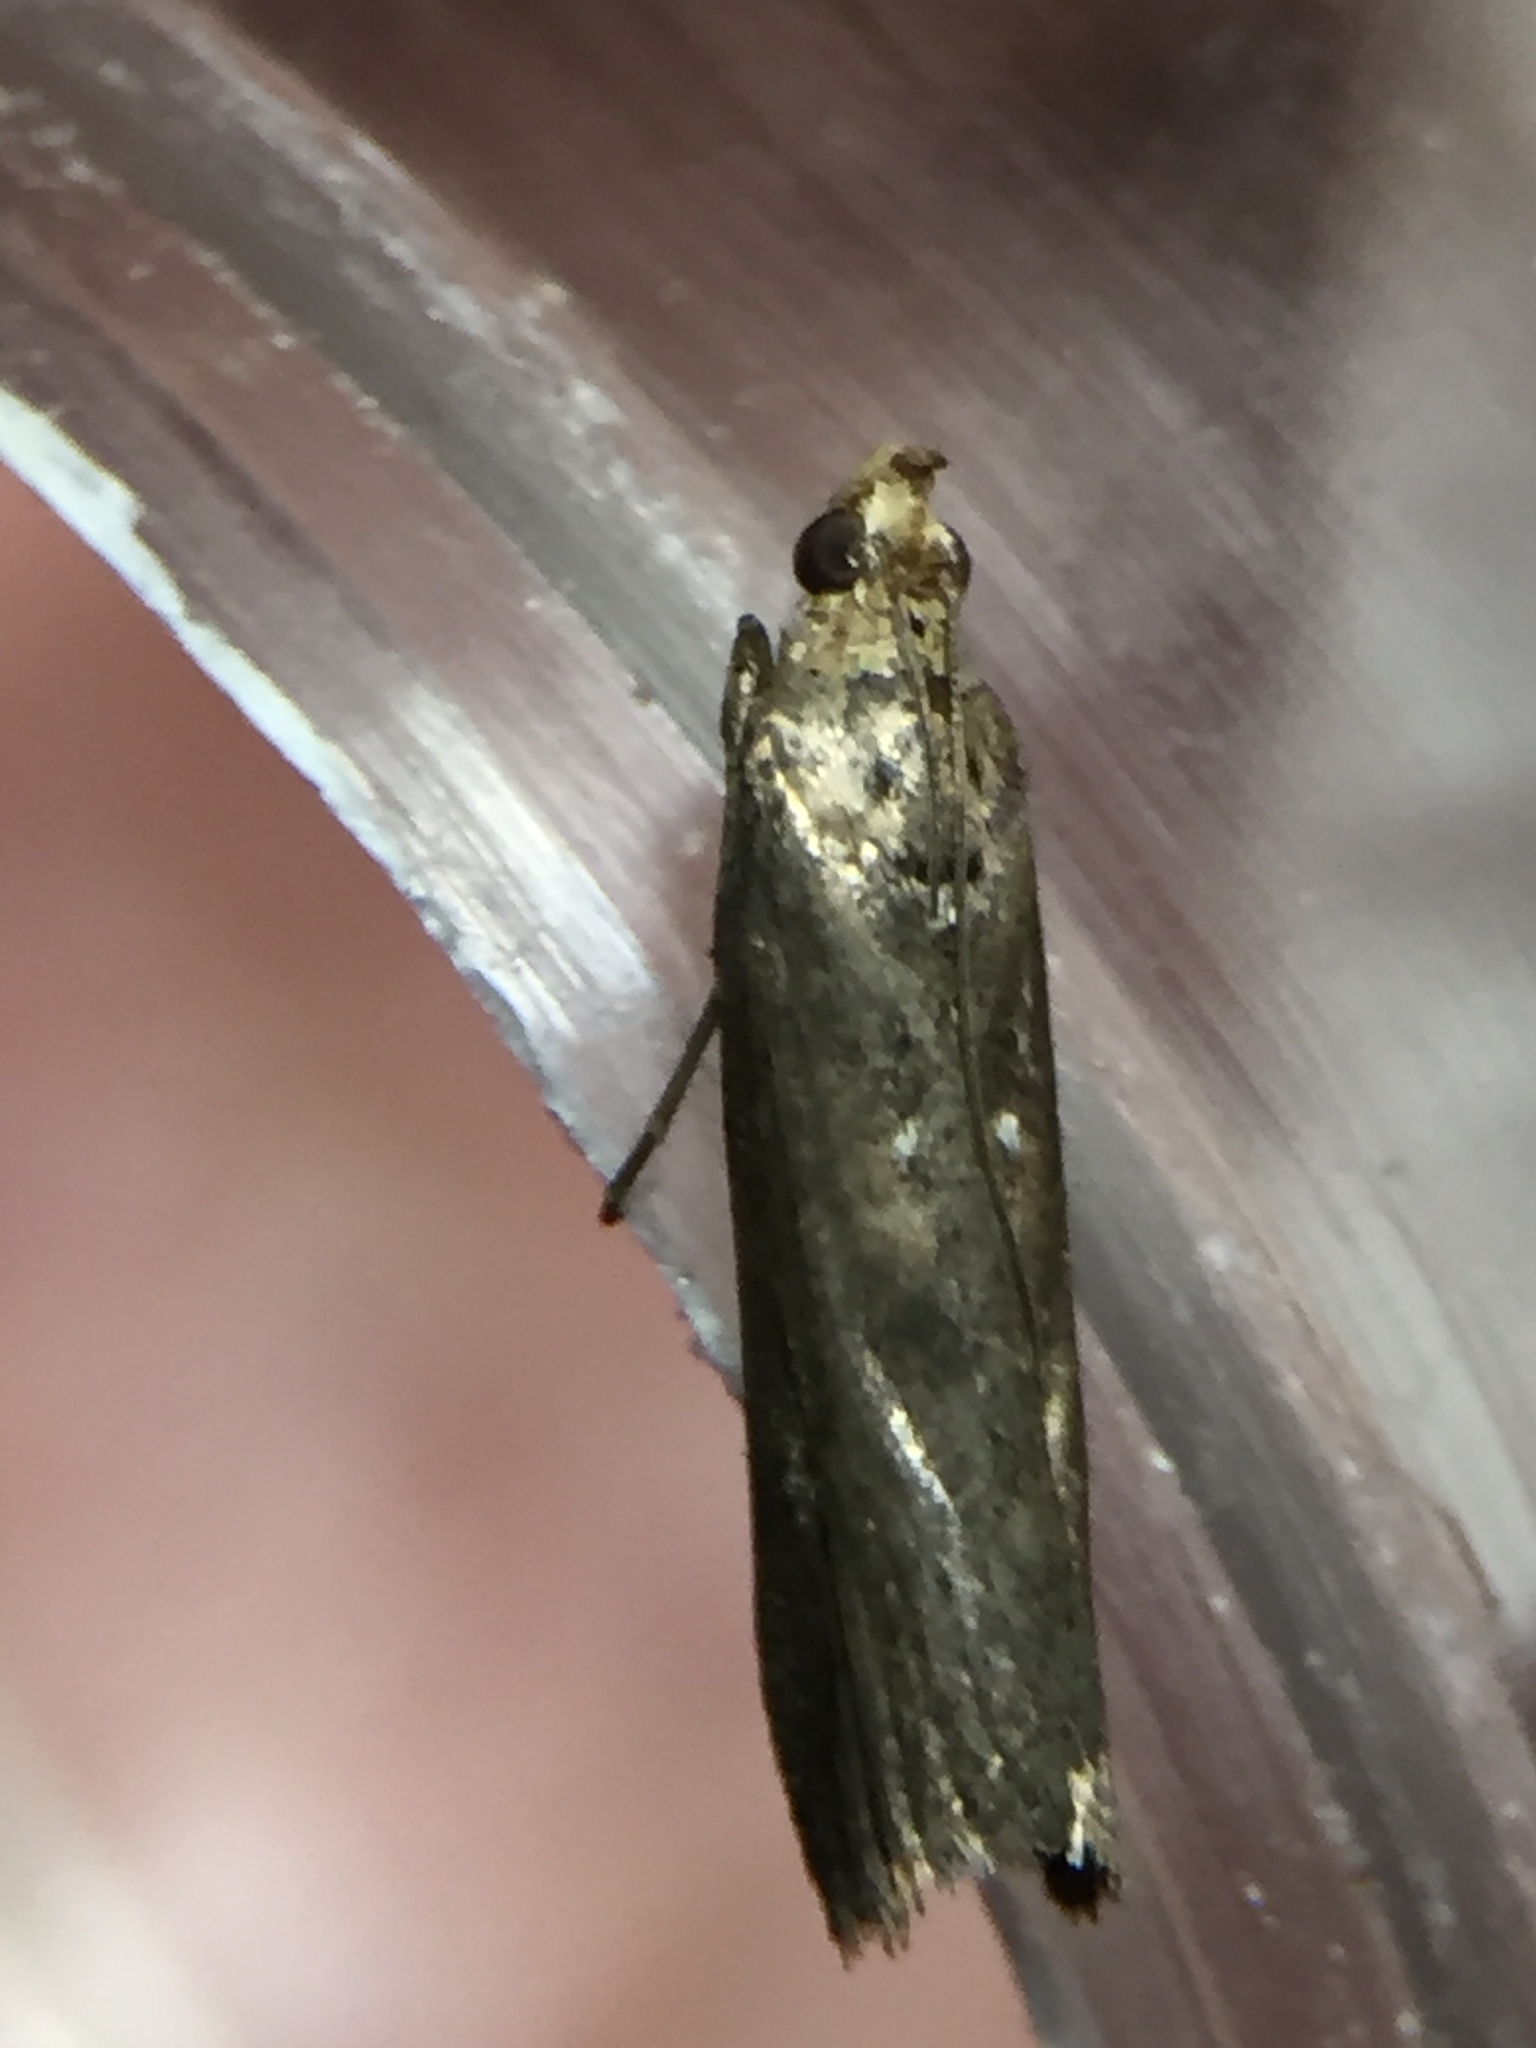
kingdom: Animalia
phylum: Arthropoda
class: Insecta
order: Lepidoptera
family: Pyralidae
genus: Morosaphycita
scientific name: Morosaphycita oculiferella
